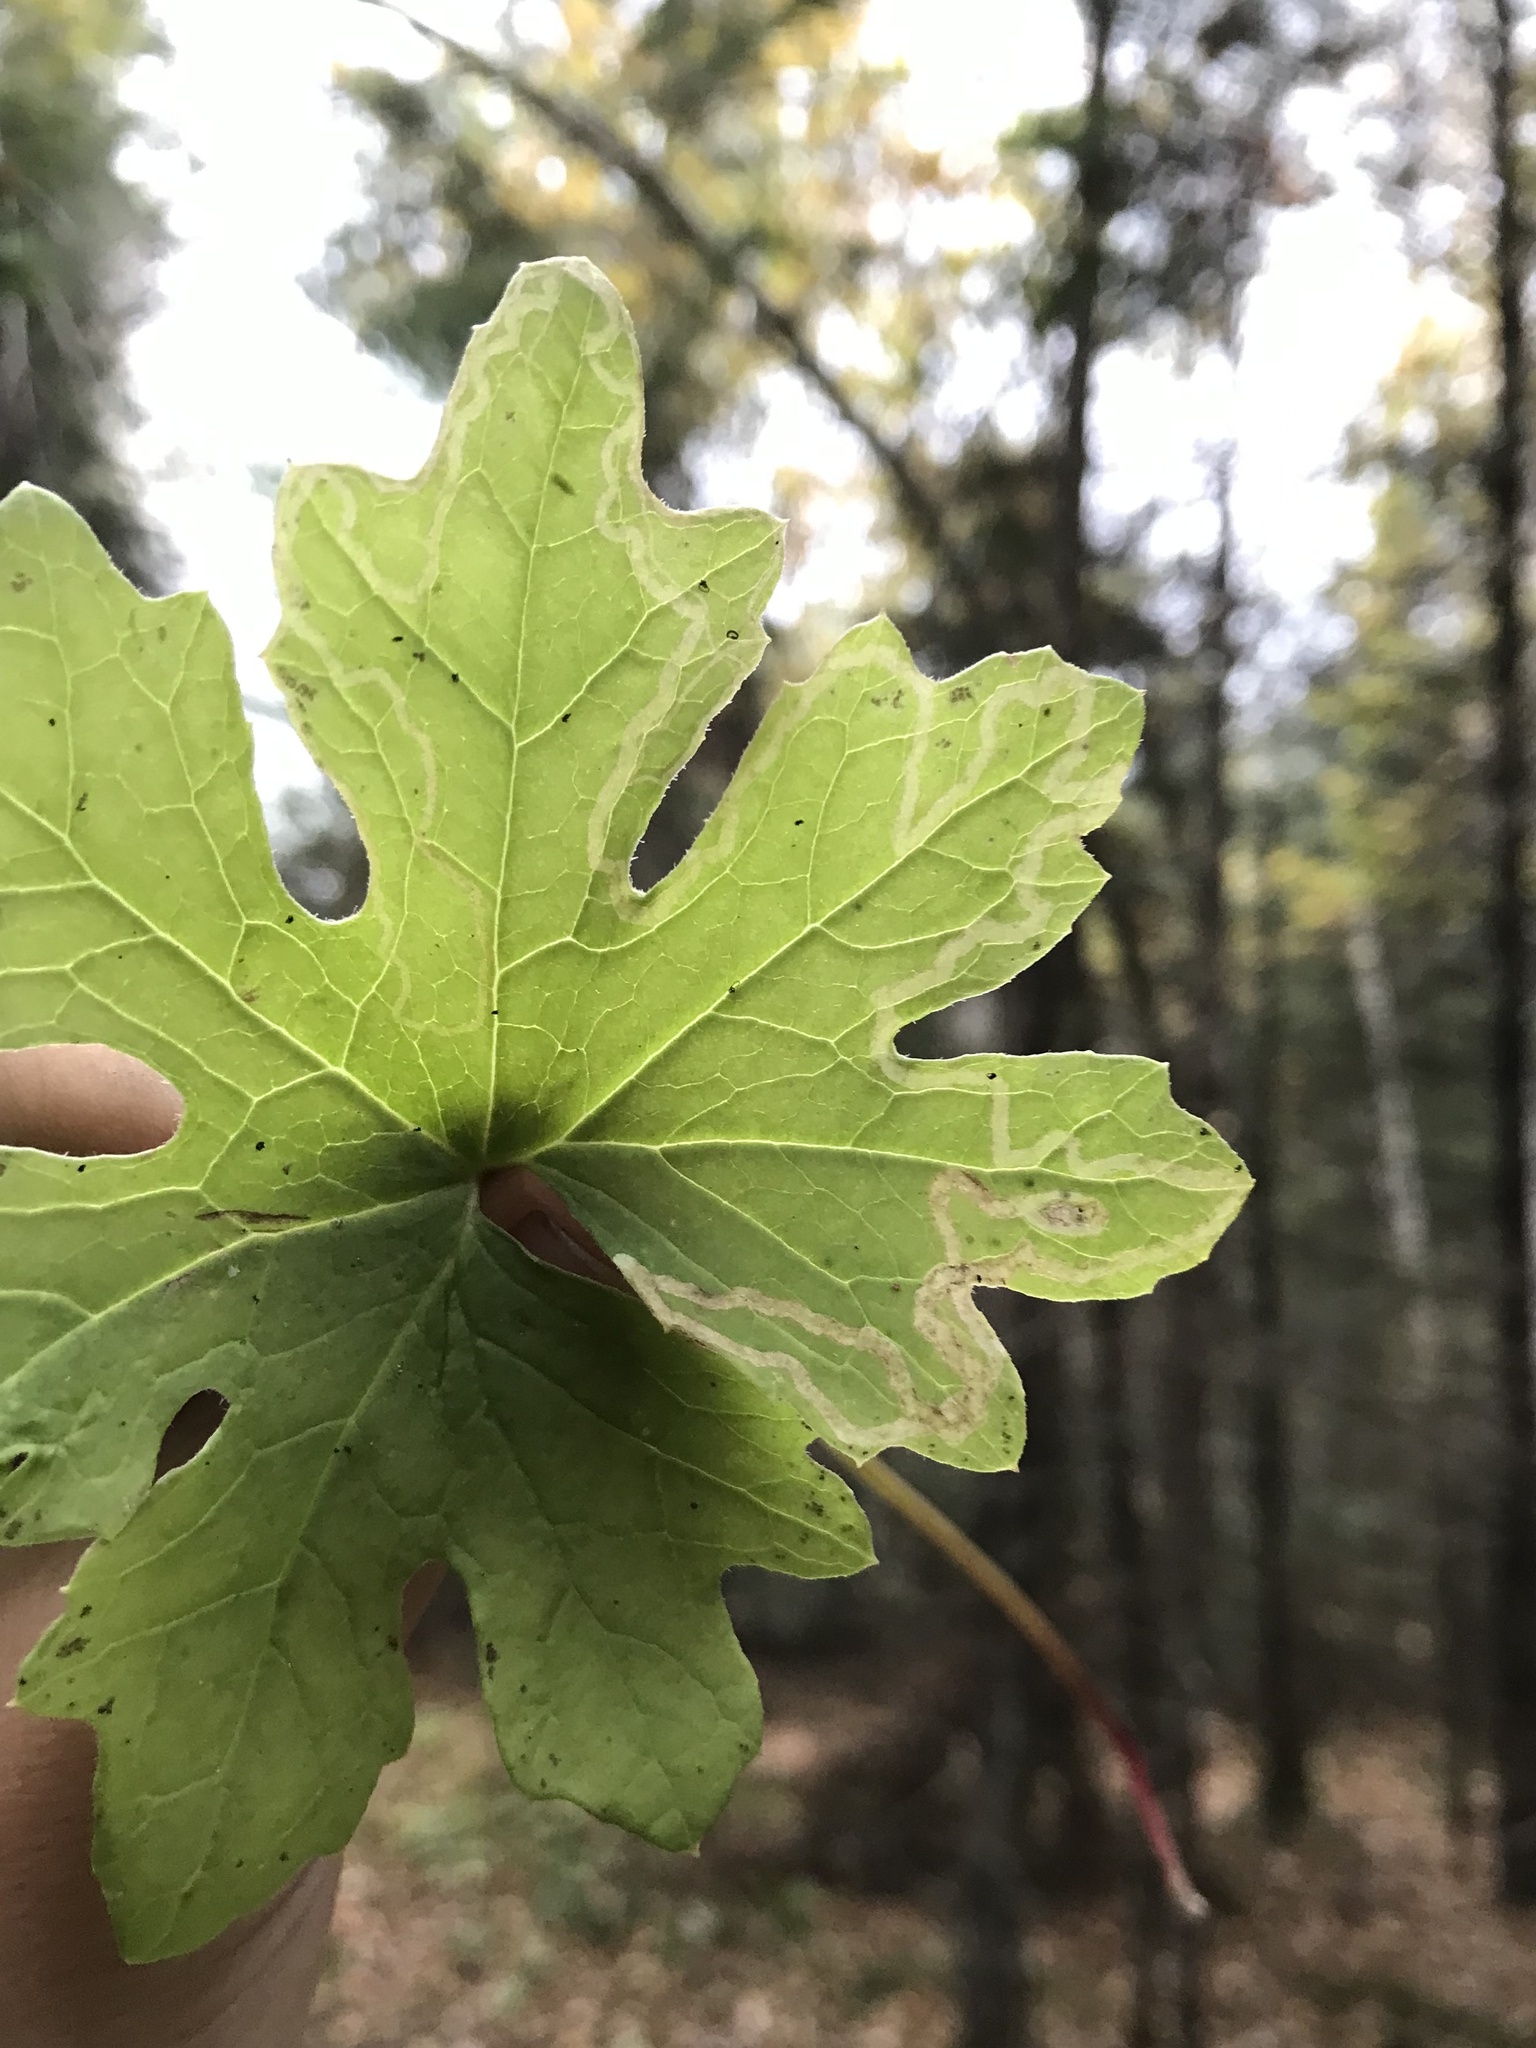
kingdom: Animalia
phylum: Arthropoda
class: Insecta
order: Lepidoptera
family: Gracillariidae
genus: Phyllocnistis
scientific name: Phyllocnistis insignis
